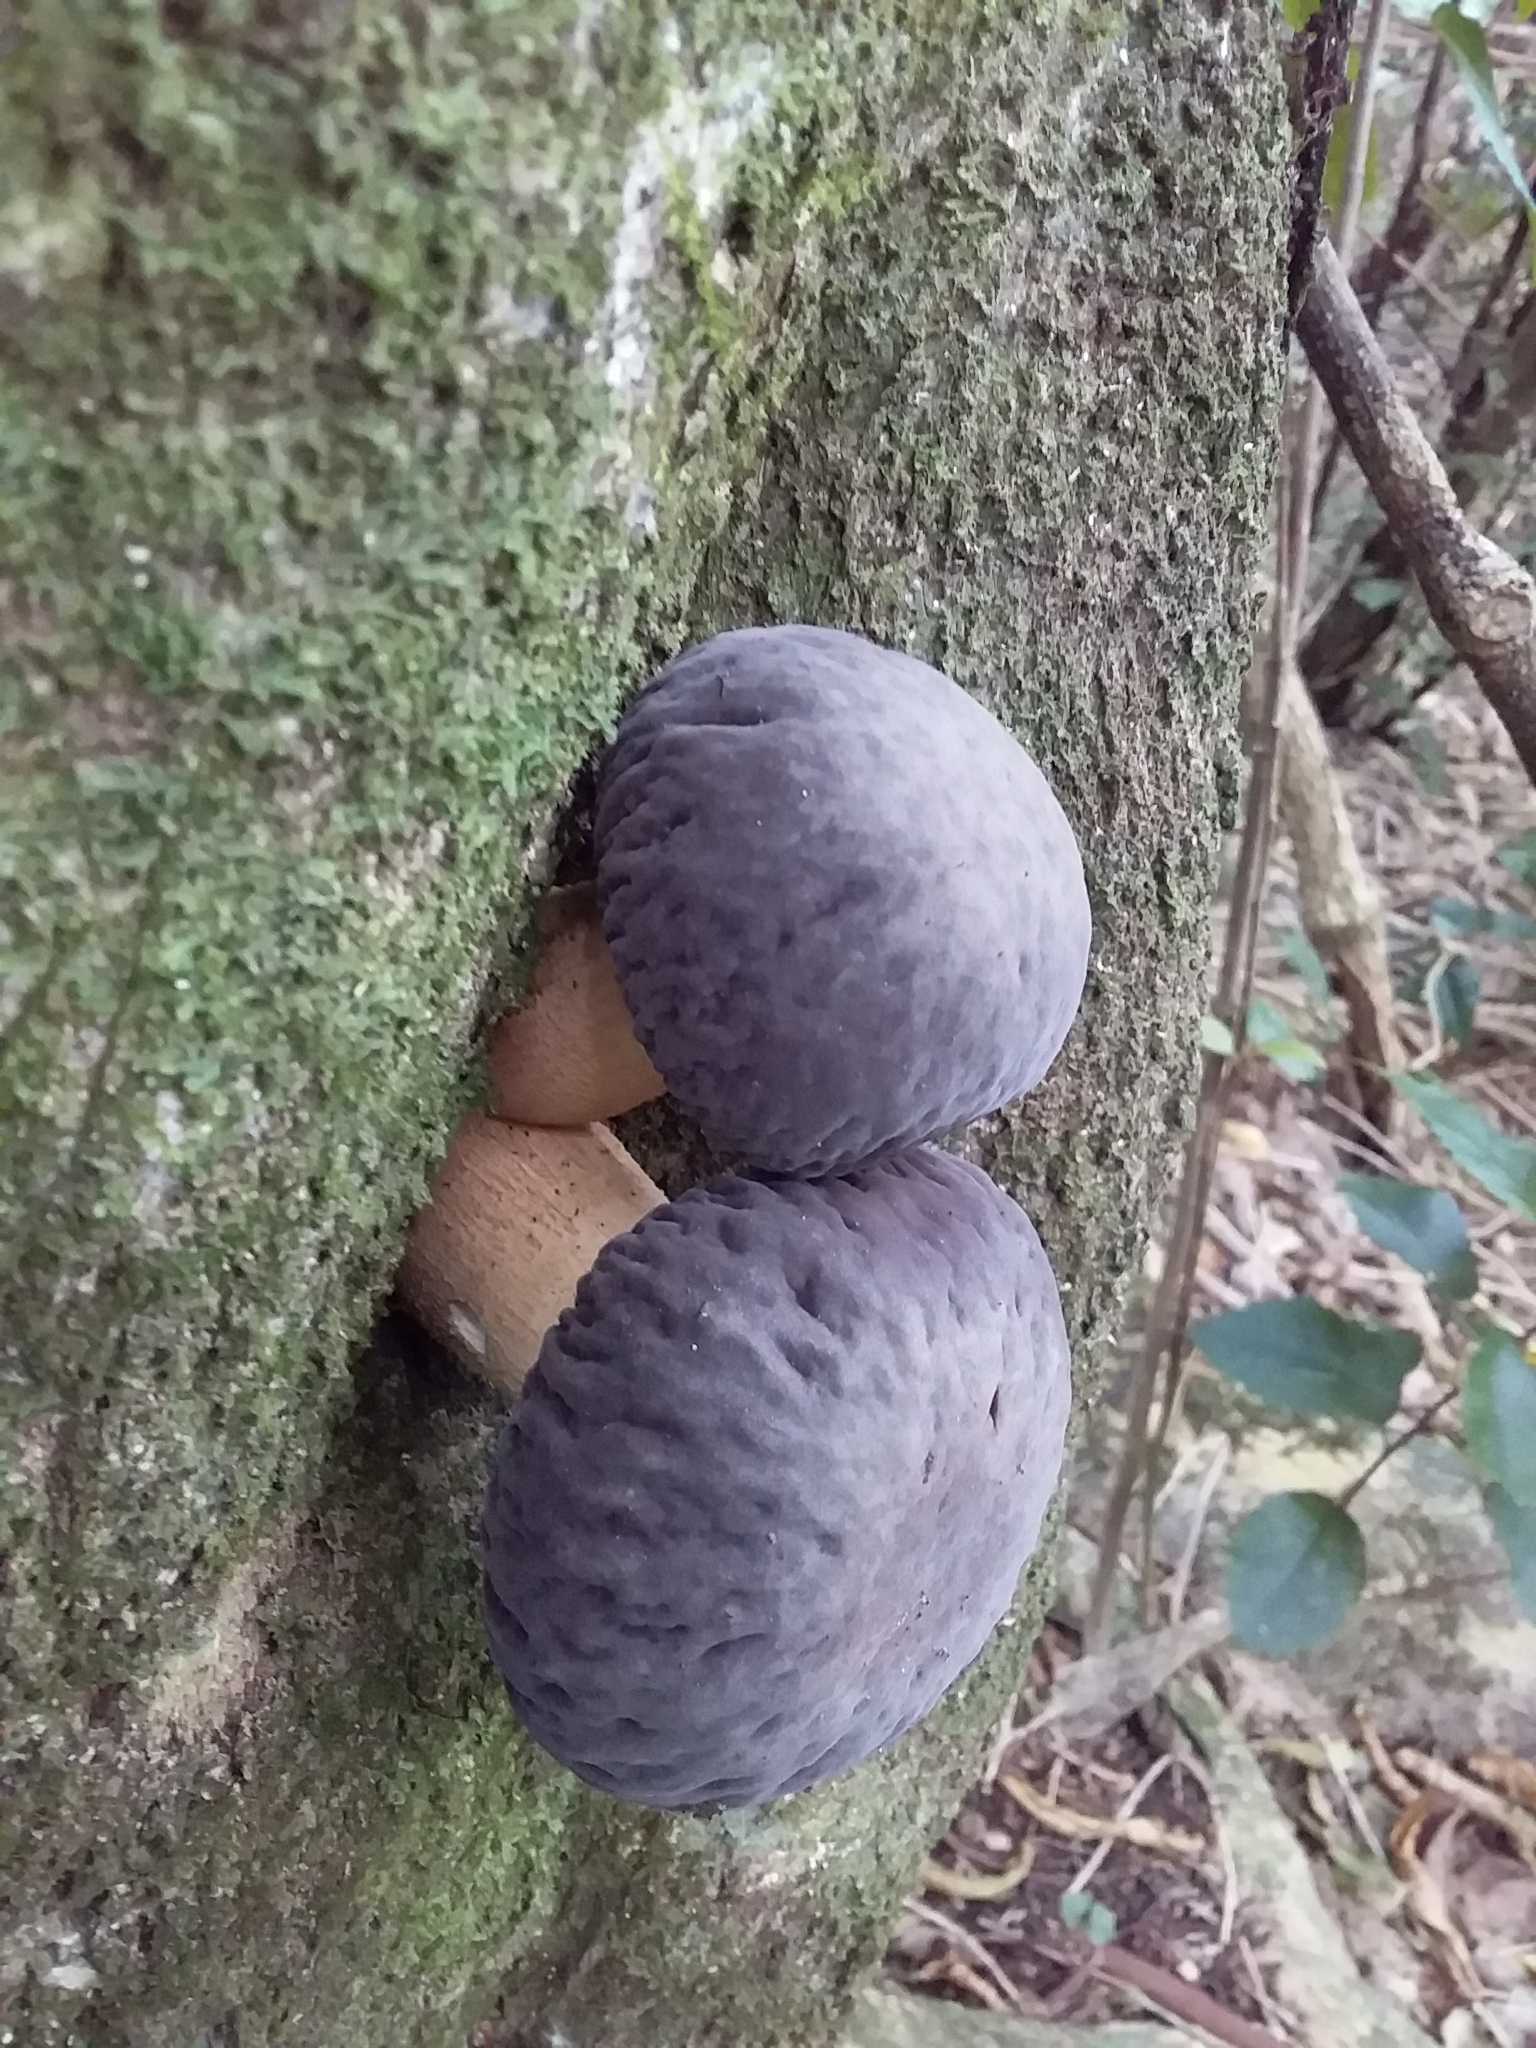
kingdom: Fungi
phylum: Basidiomycota
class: Agaricomycetes
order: Agaricales
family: Tubariaceae
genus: Cyclocybe
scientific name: Cyclocybe parasitica
